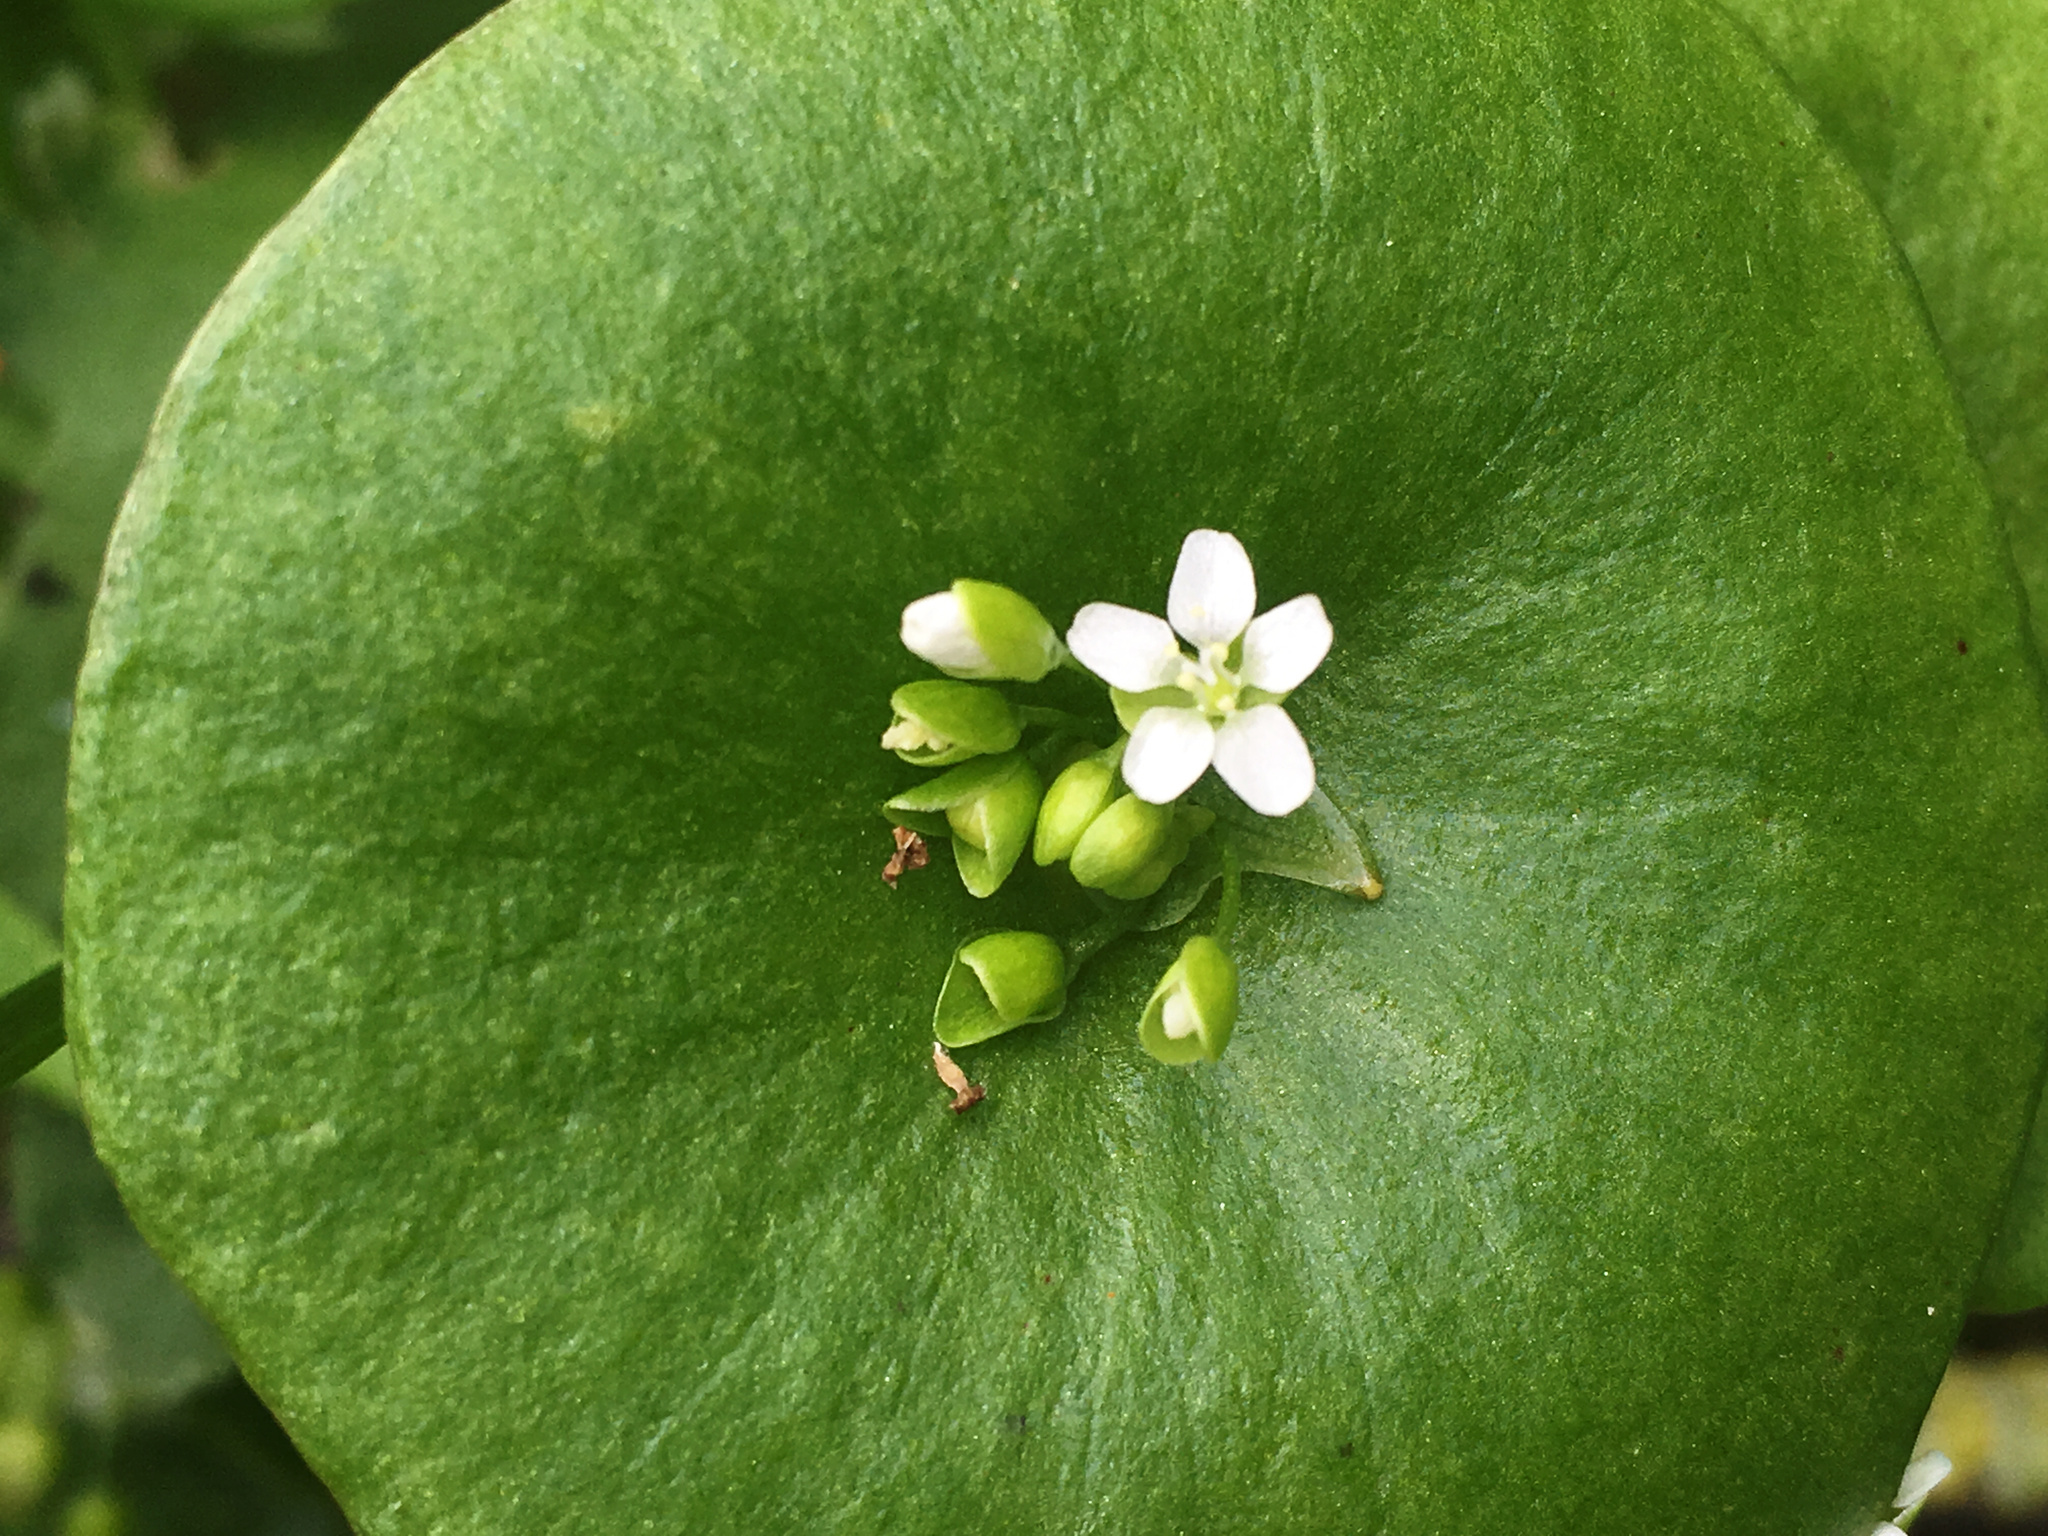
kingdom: Plantae
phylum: Tracheophyta
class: Magnoliopsida
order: Caryophyllales
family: Montiaceae
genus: Claytonia
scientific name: Claytonia perfoliata
